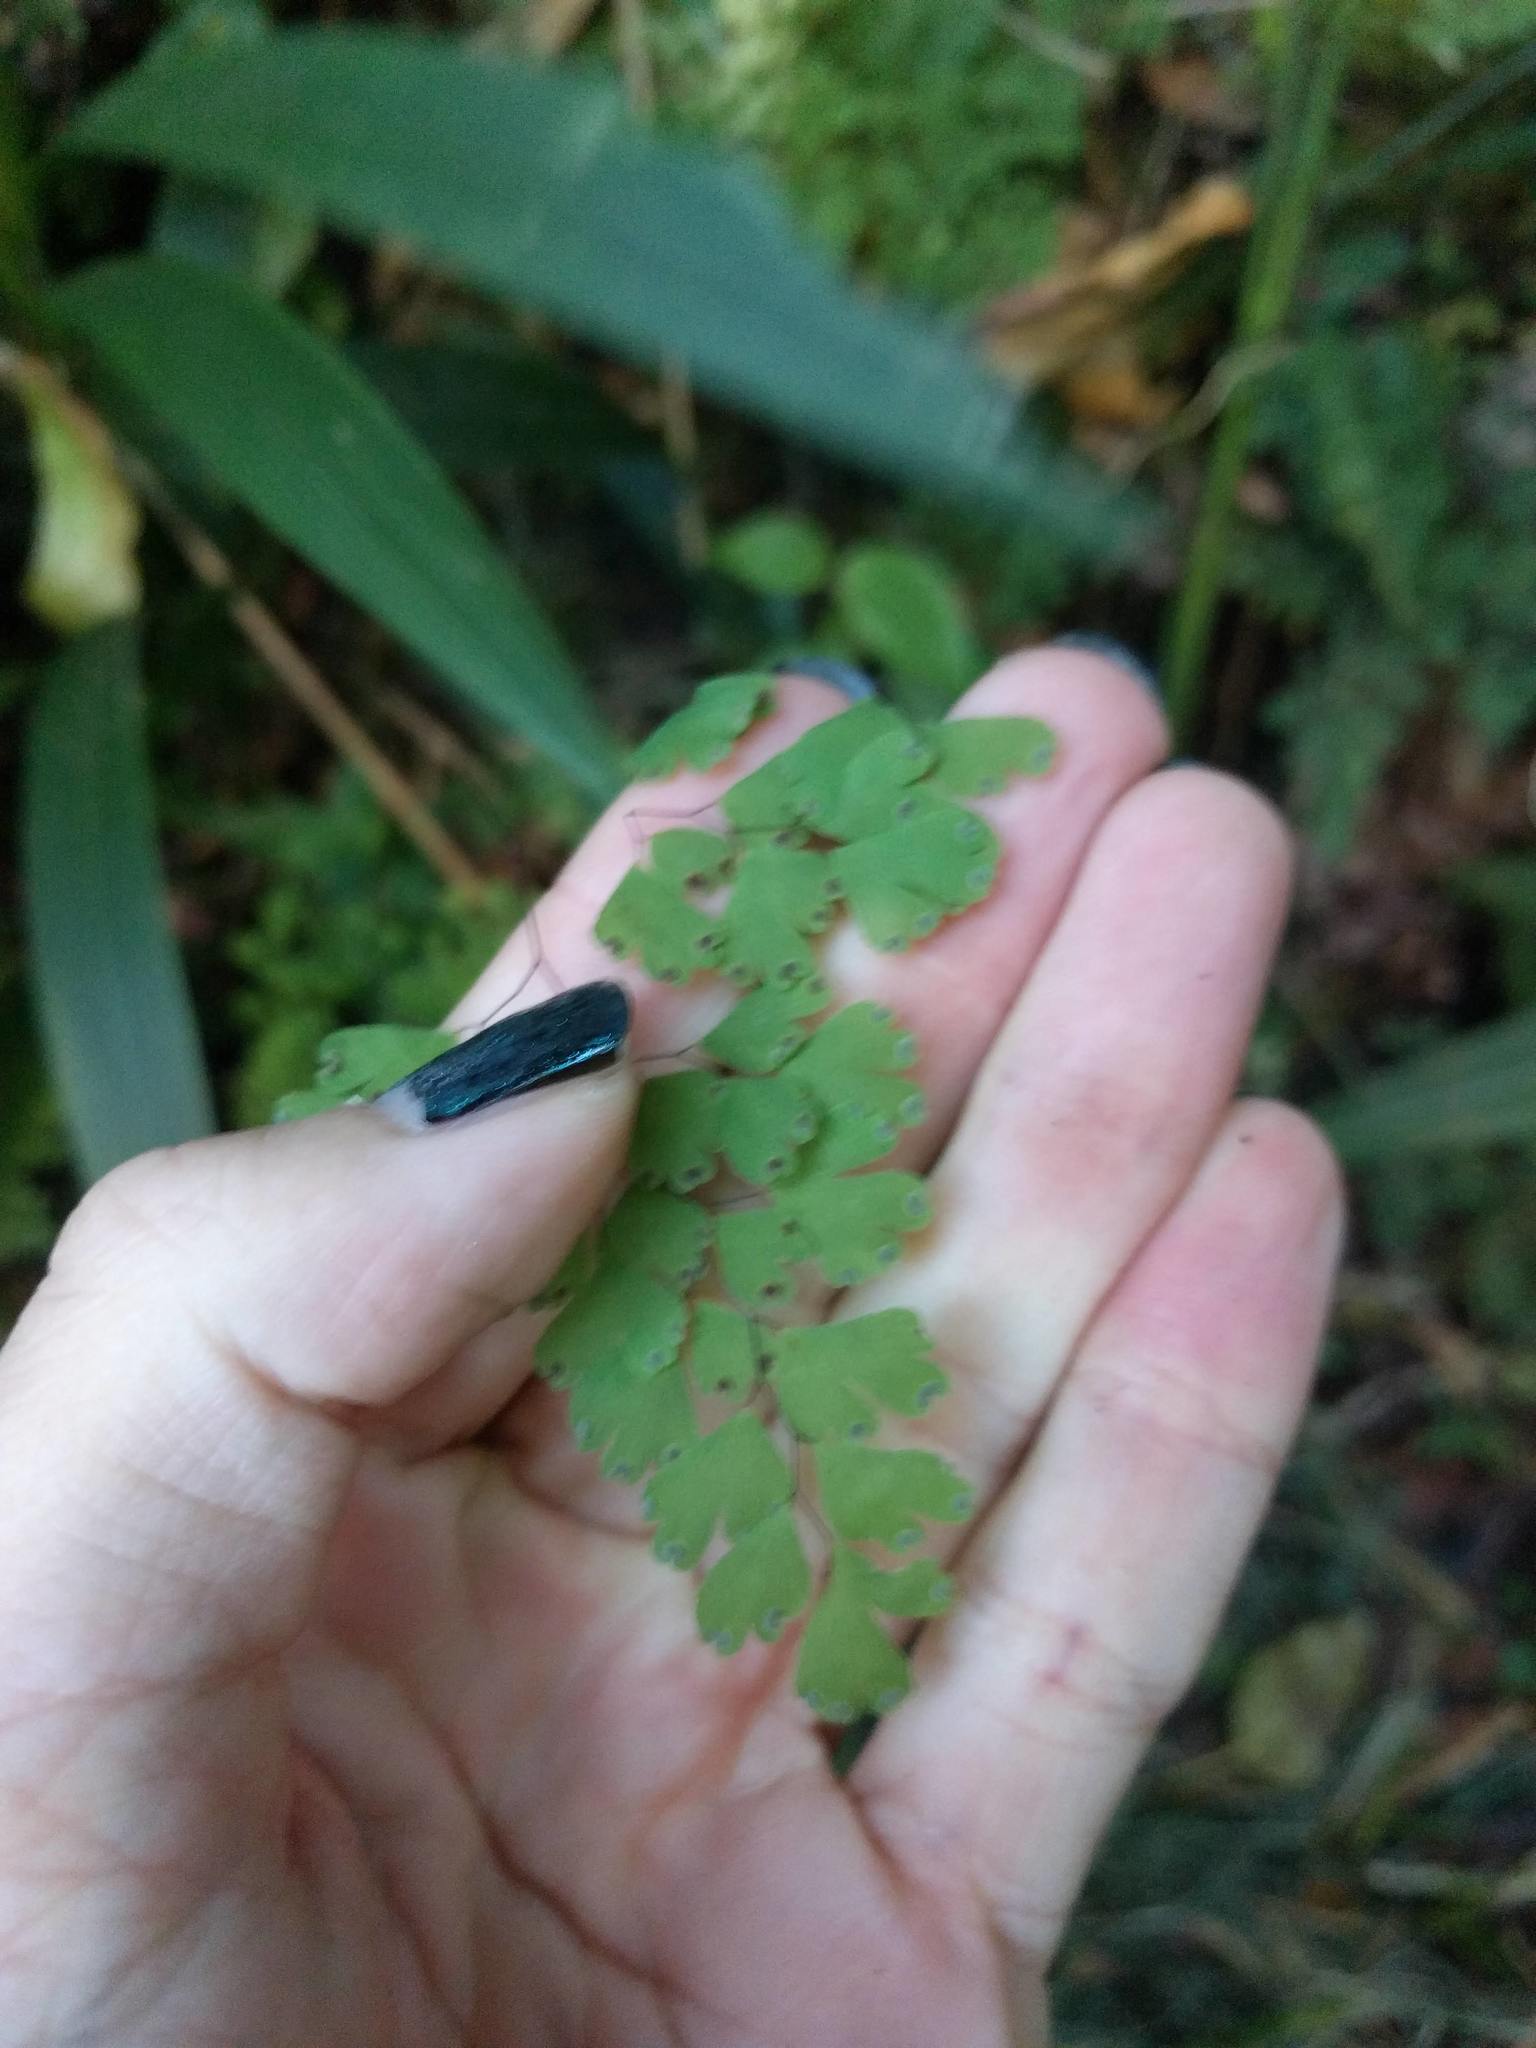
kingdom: Plantae
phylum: Tracheophyta
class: Polypodiopsida
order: Polypodiales
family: Pteridaceae
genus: Adiantum
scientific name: Adiantum raddianum
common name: Delta maidenhair fern
